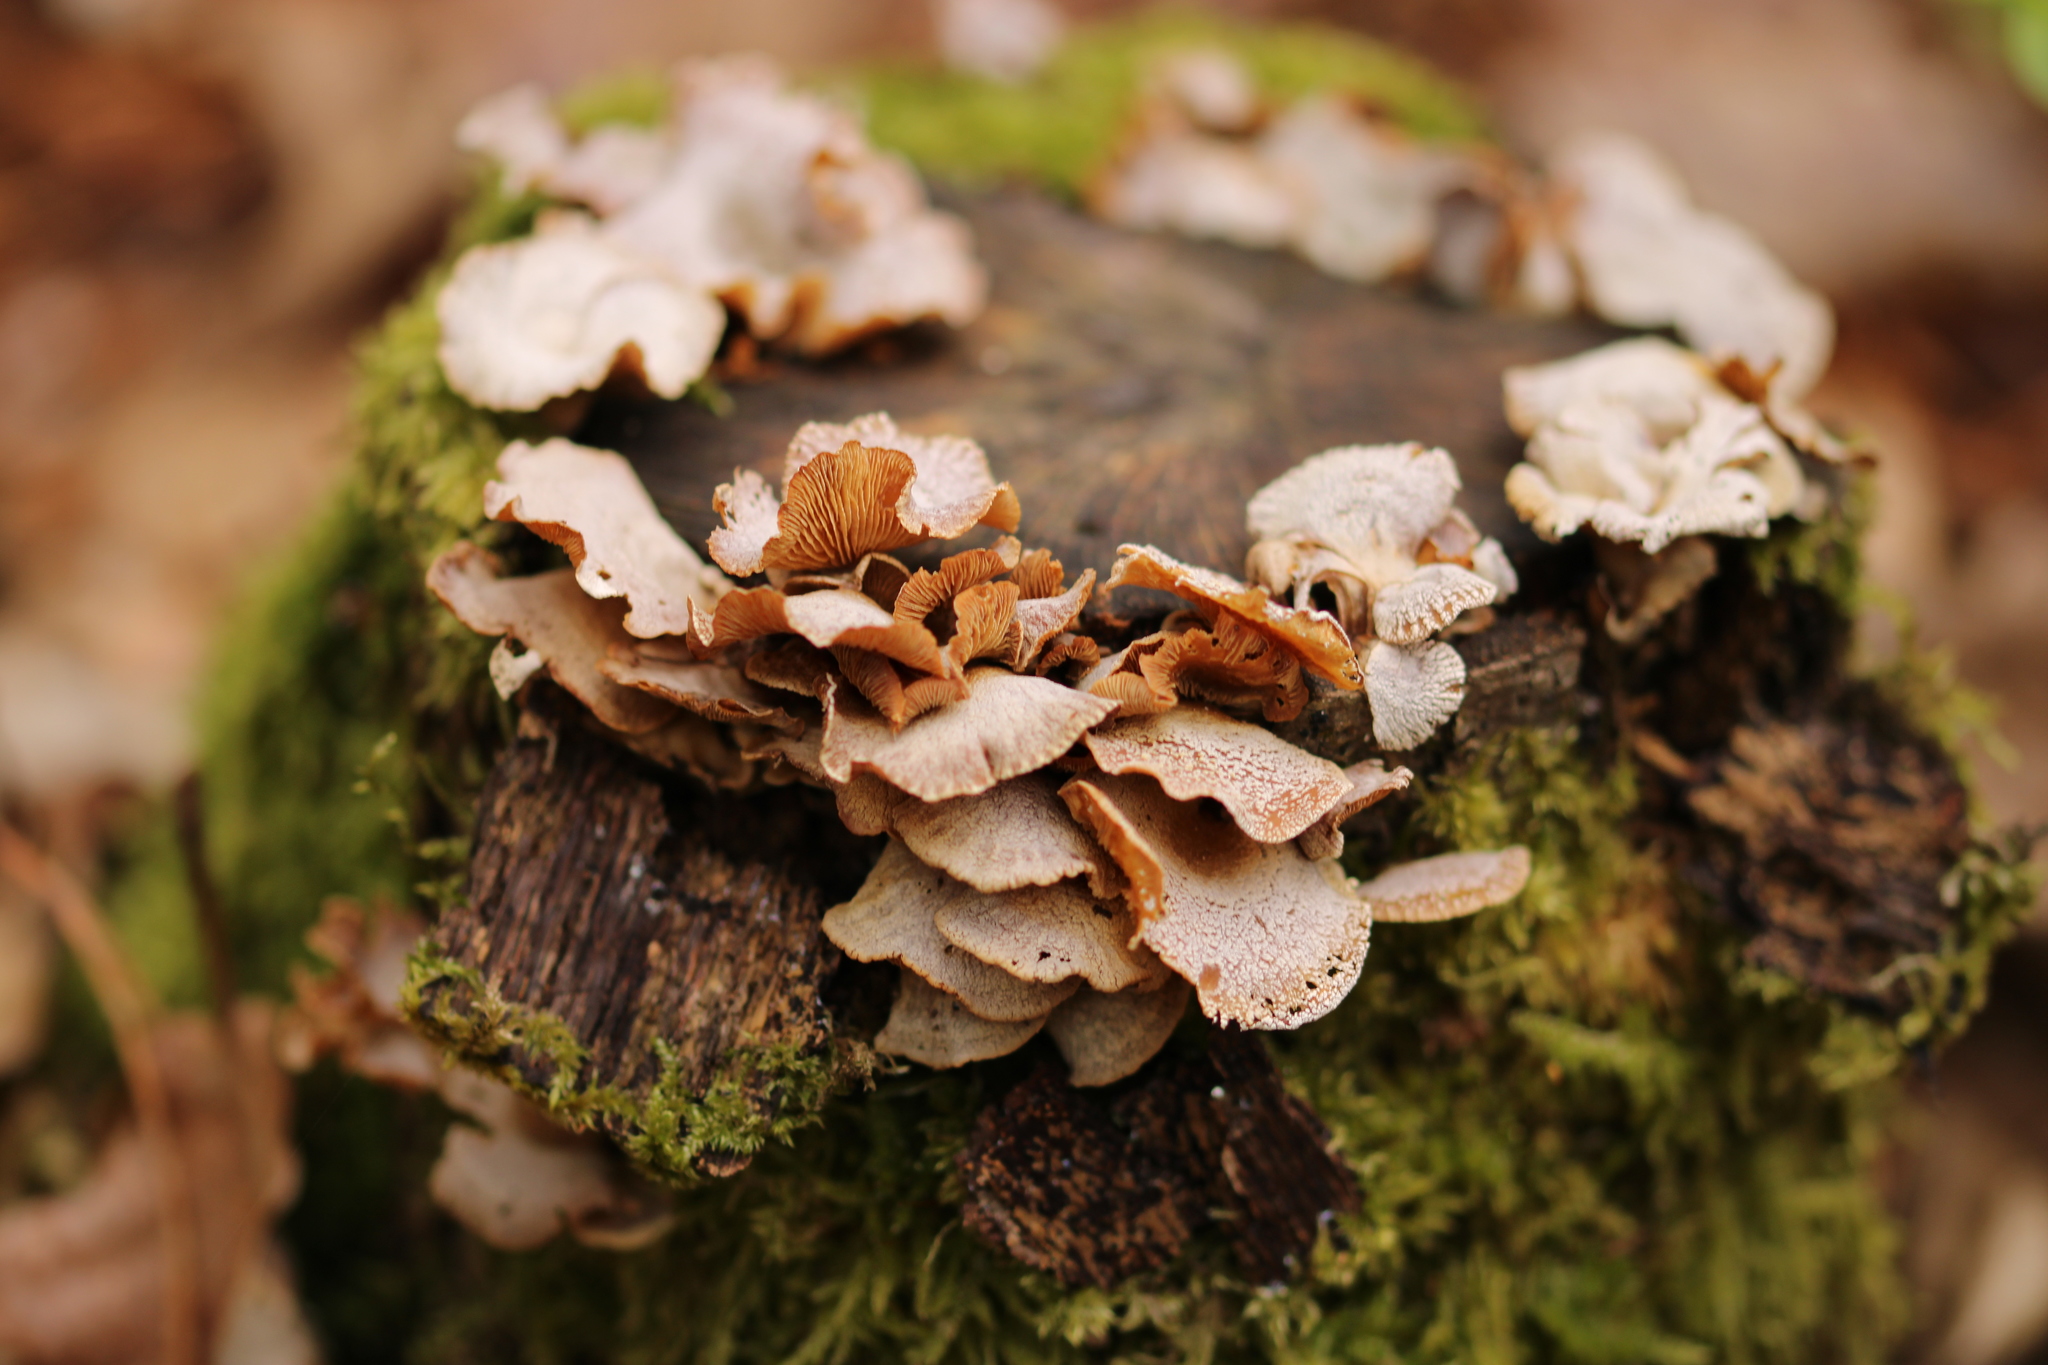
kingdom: Fungi
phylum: Basidiomycota
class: Agaricomycetes
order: Agaricales
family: Mycenaceae
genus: Panellus
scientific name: Panellus stipticus
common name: Bitter oysterling
